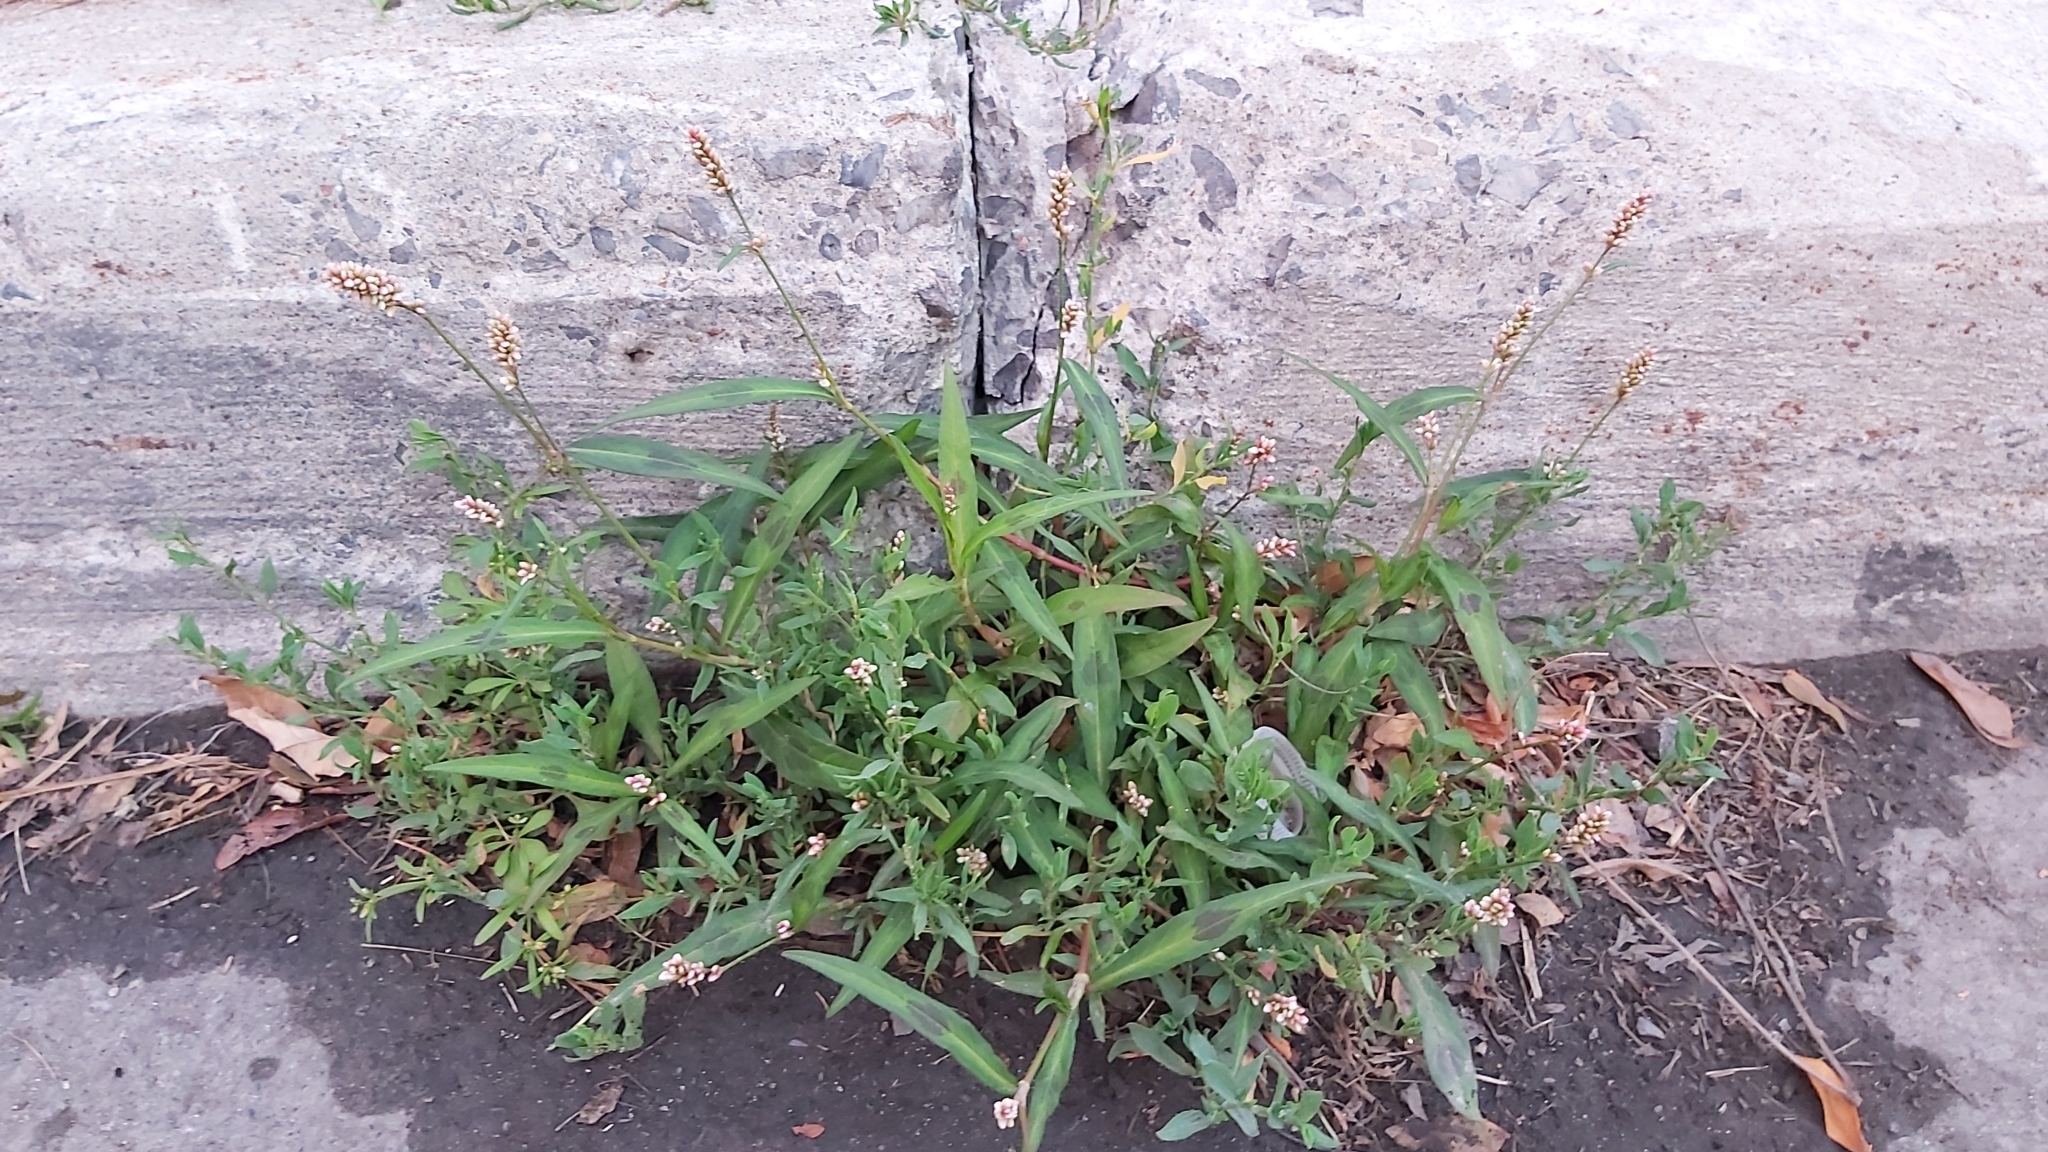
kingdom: Plantae
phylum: Tracheophyta
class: Magnoliopsida
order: Caryophyllales
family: Polygonaceae
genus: Persicaria
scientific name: Persicaria maculosa
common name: Redshank
